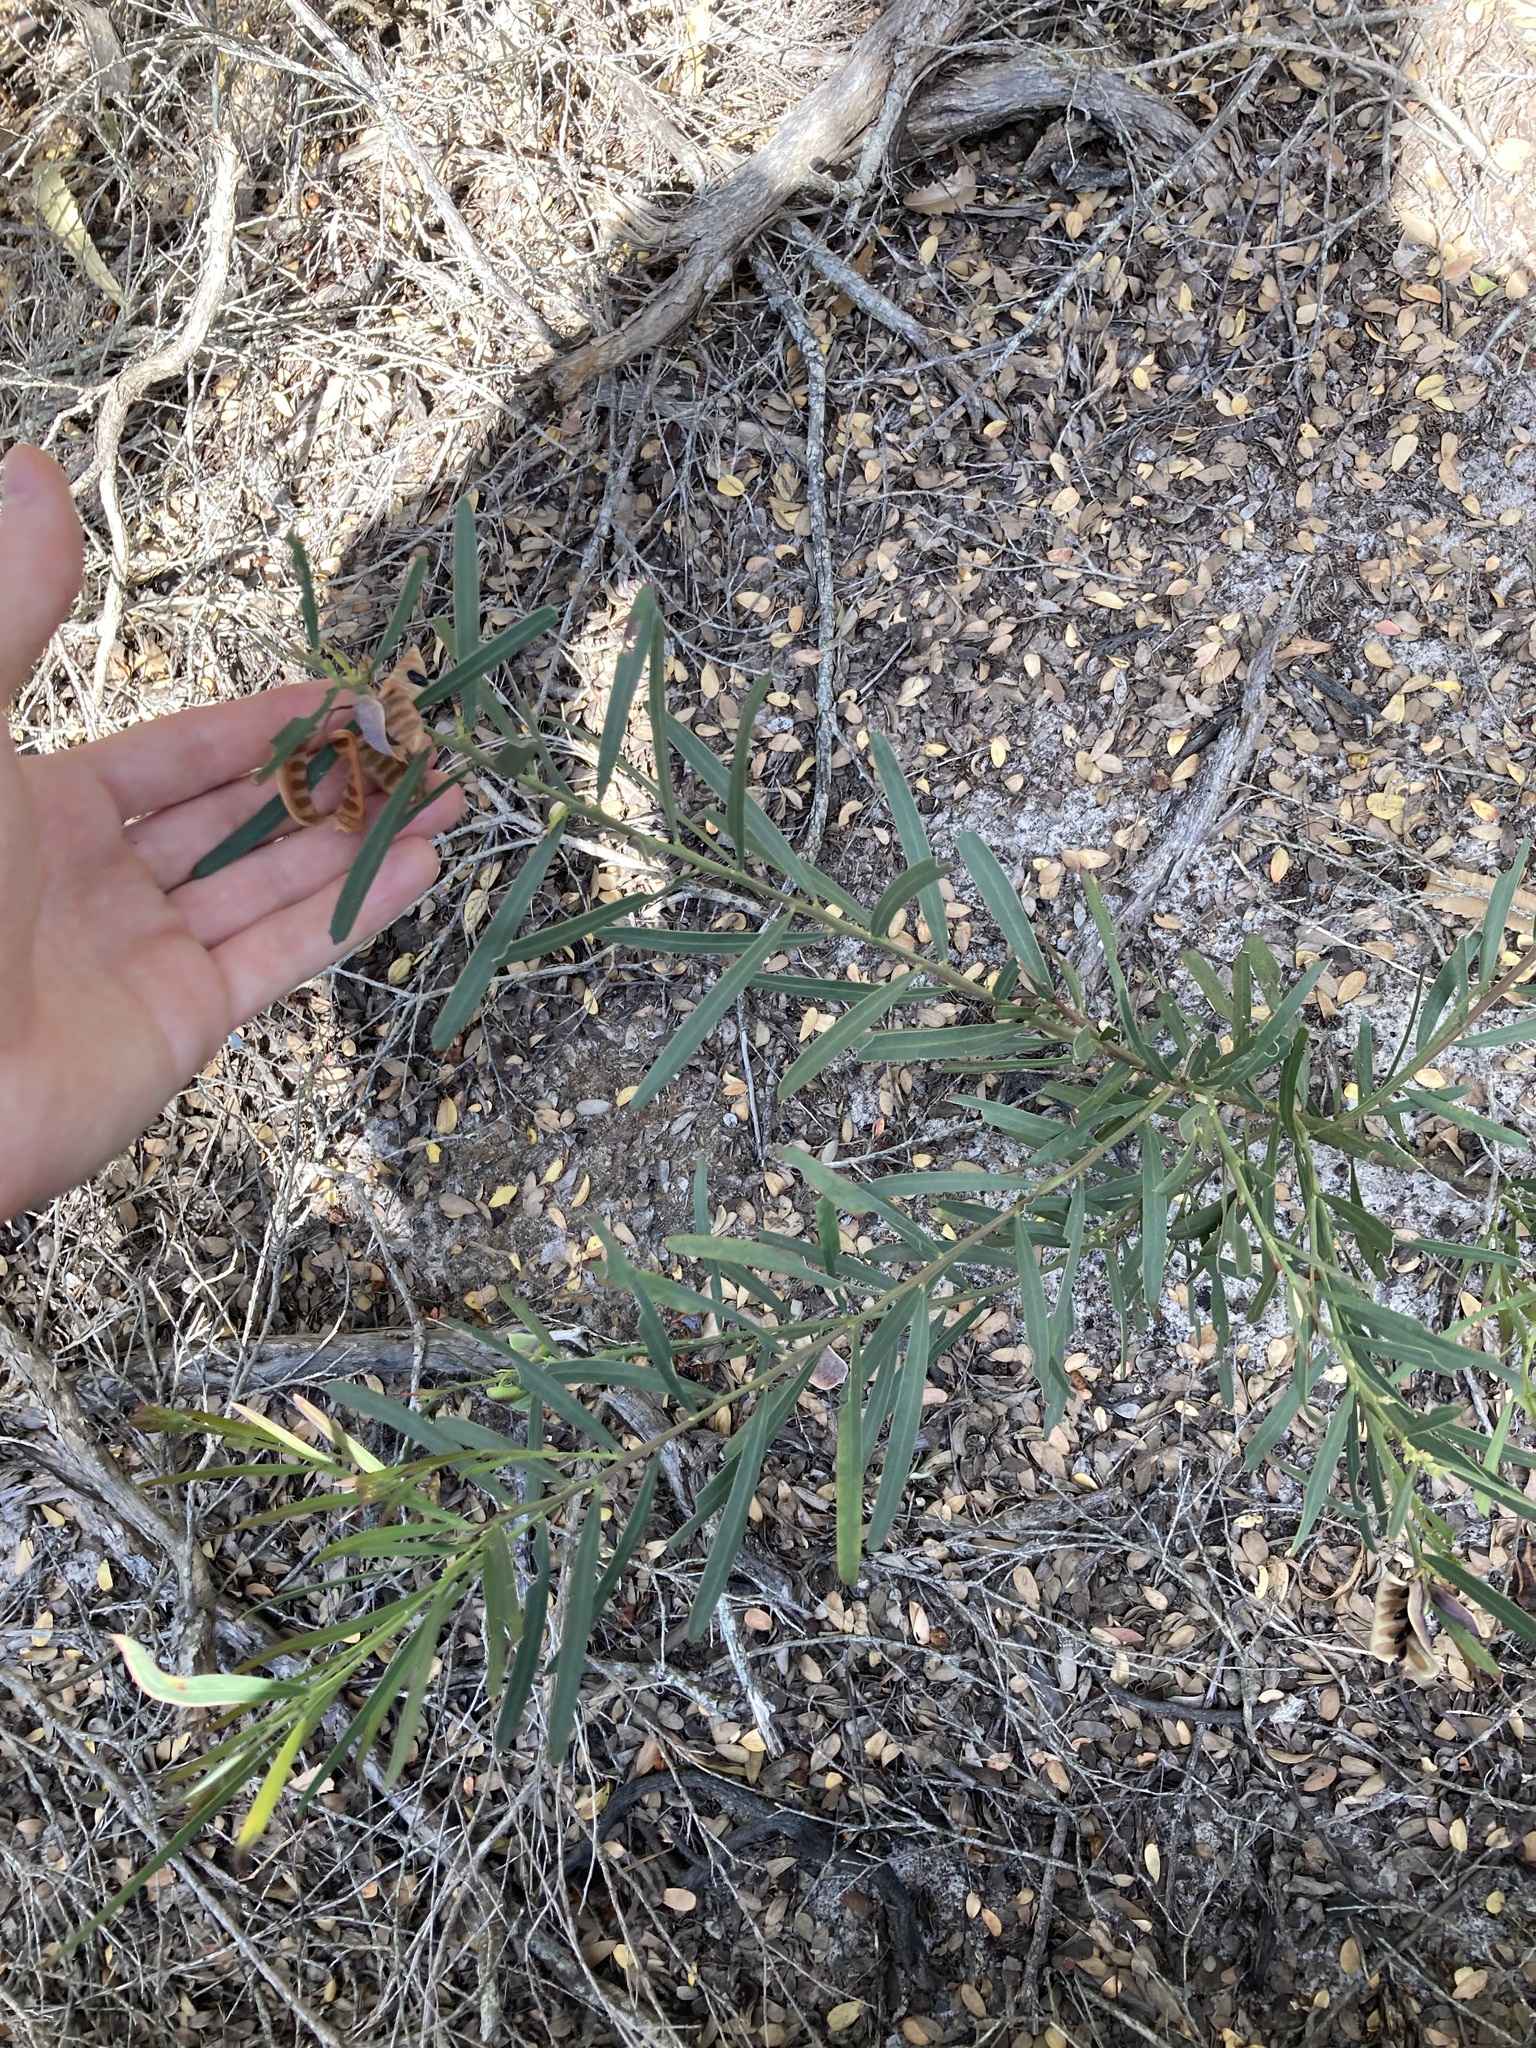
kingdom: Plantae
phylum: Tracheophyta
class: Magnoliopsida
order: Fabales
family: Fabaceae
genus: Acacia
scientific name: Acacia suaveolens
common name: Sweet acacia
